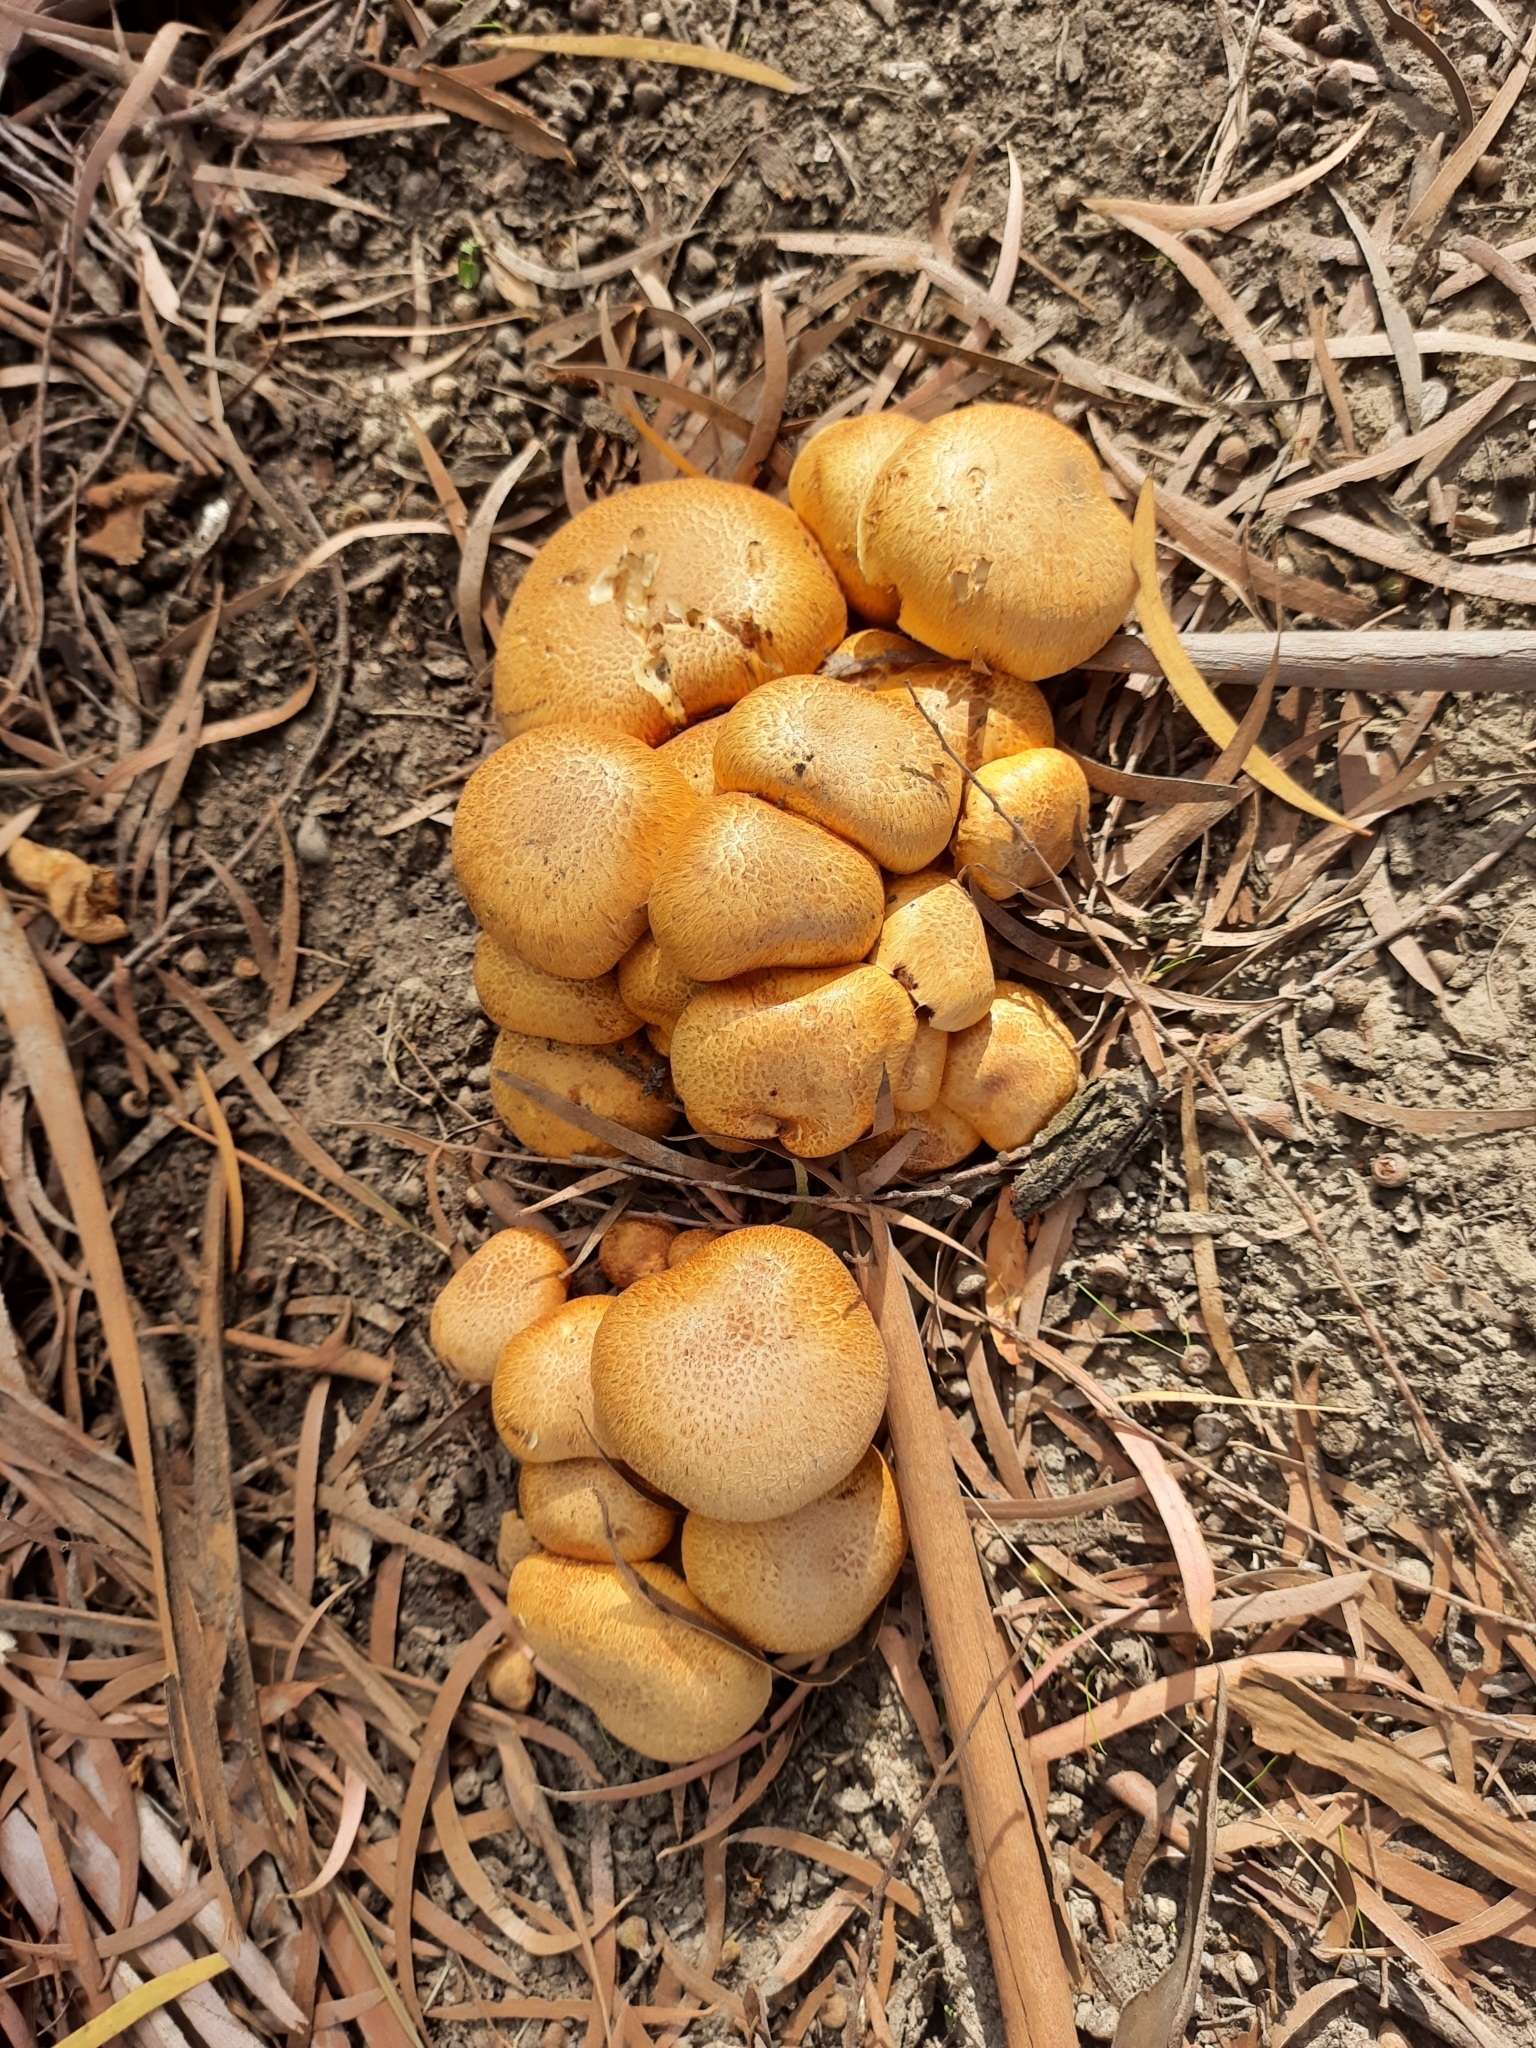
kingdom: Fungi
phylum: Basidiomycota
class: Agaricomycetes
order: Agaricales
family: Hymenogastraceae
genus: Gymnopilus
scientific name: Gymnopilus junonius
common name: Spectacular rustgill
